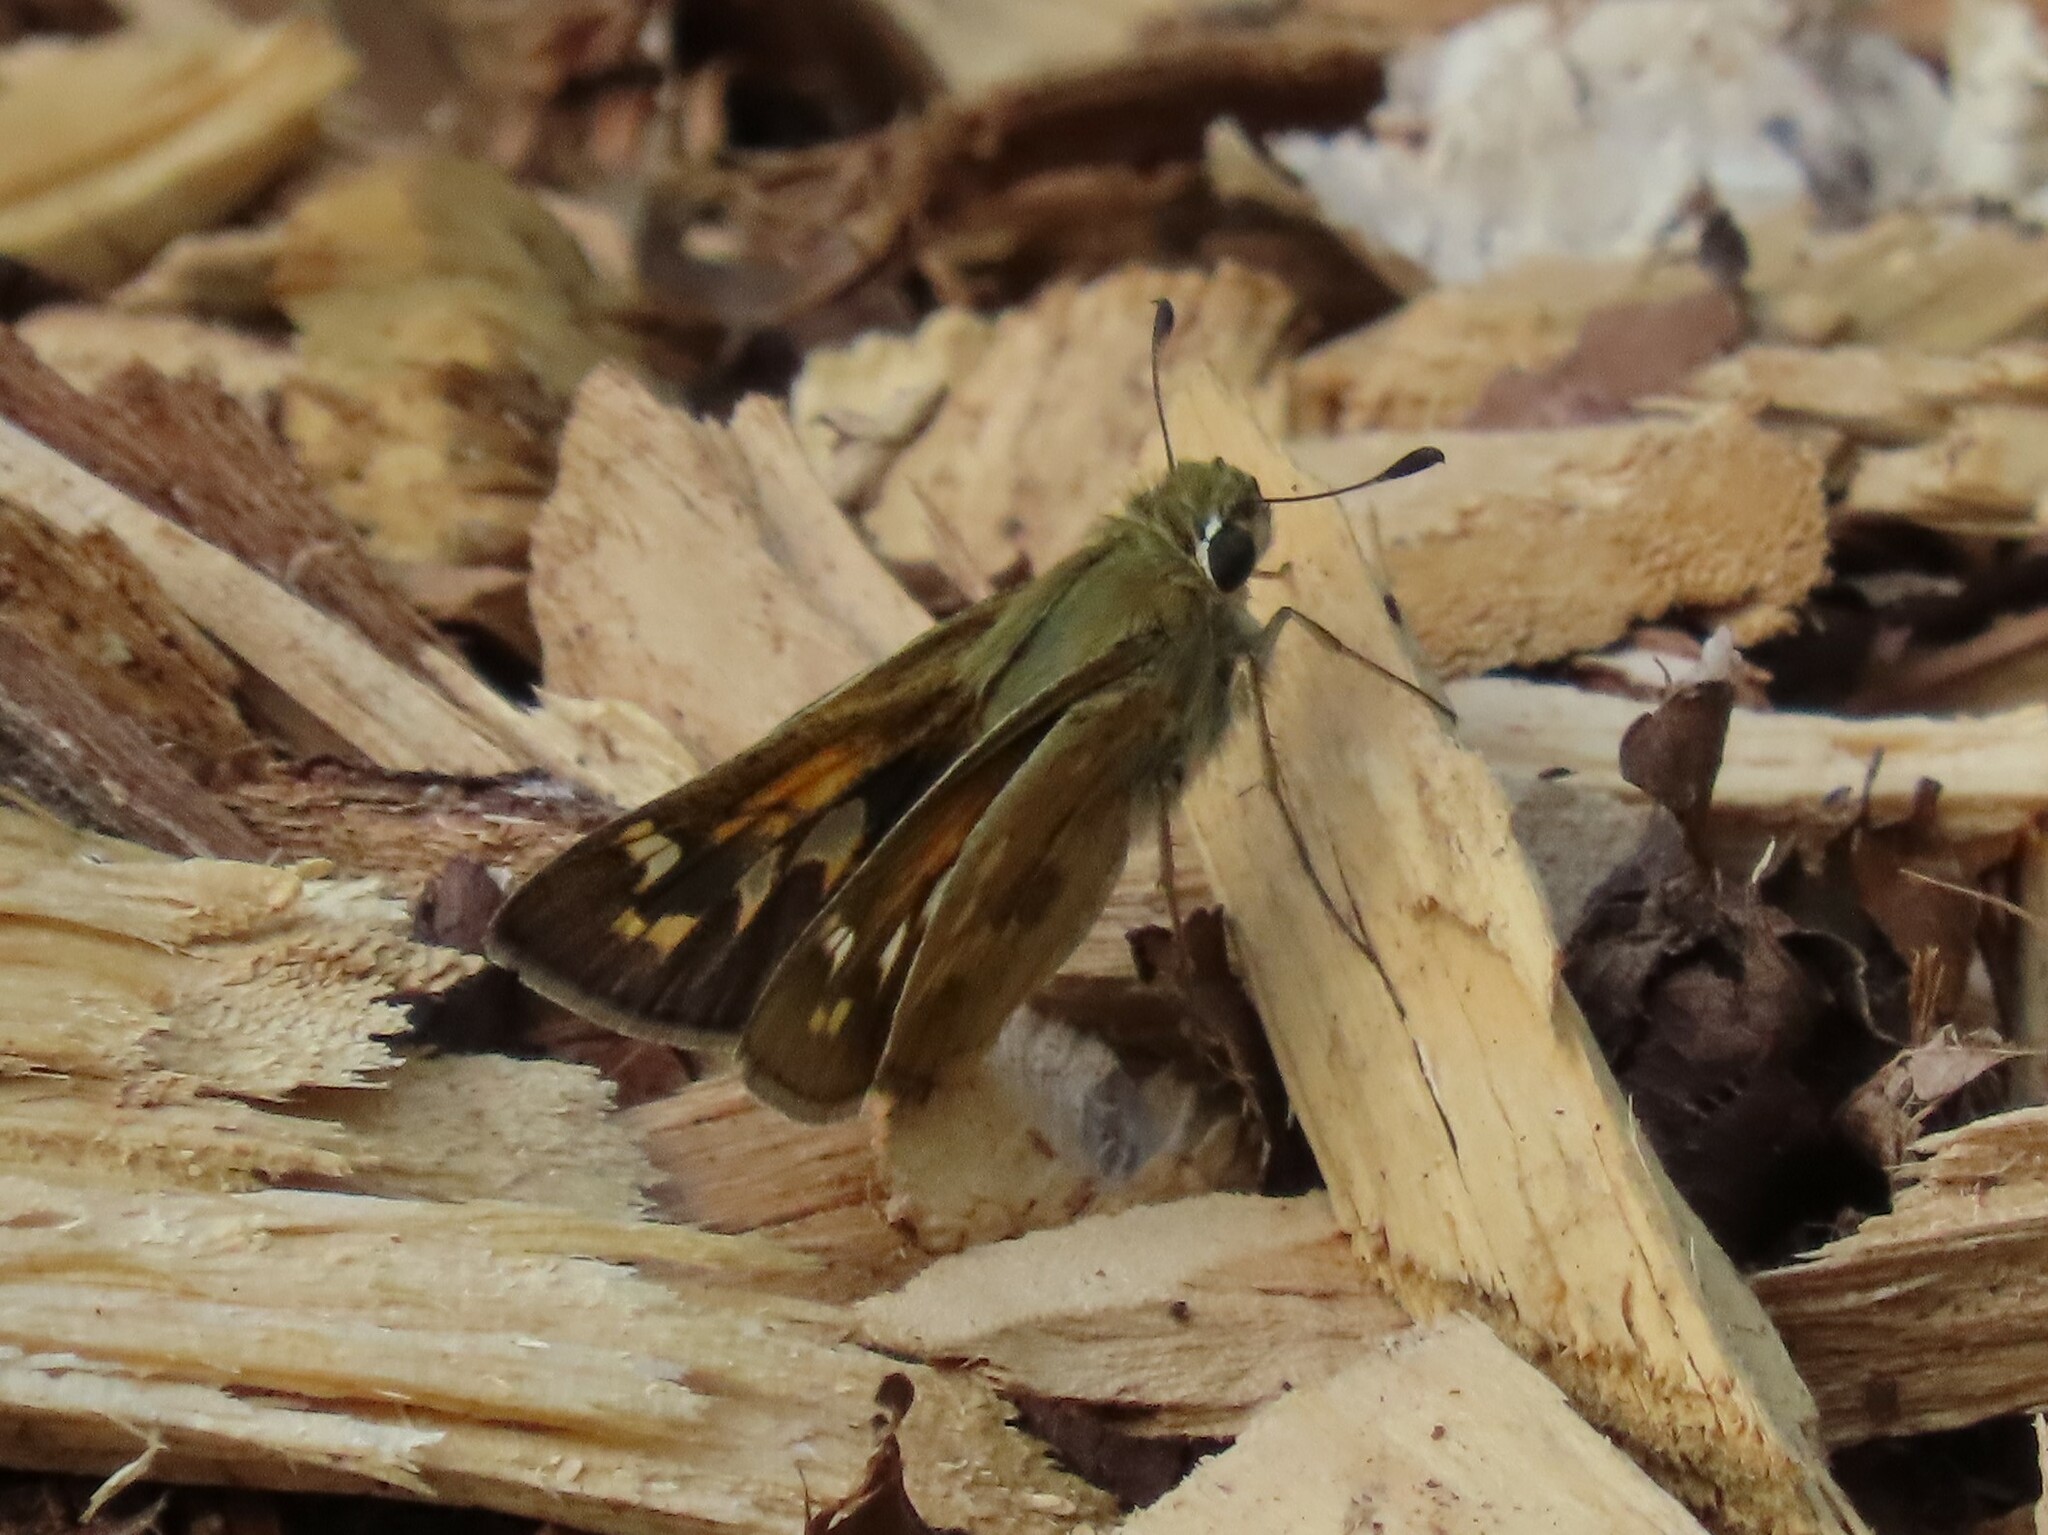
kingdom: Animalia
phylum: Arthropoda
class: Insecta
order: Lepidoptera
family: Hesperiidae
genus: Atalopedes
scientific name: Atalopedes
